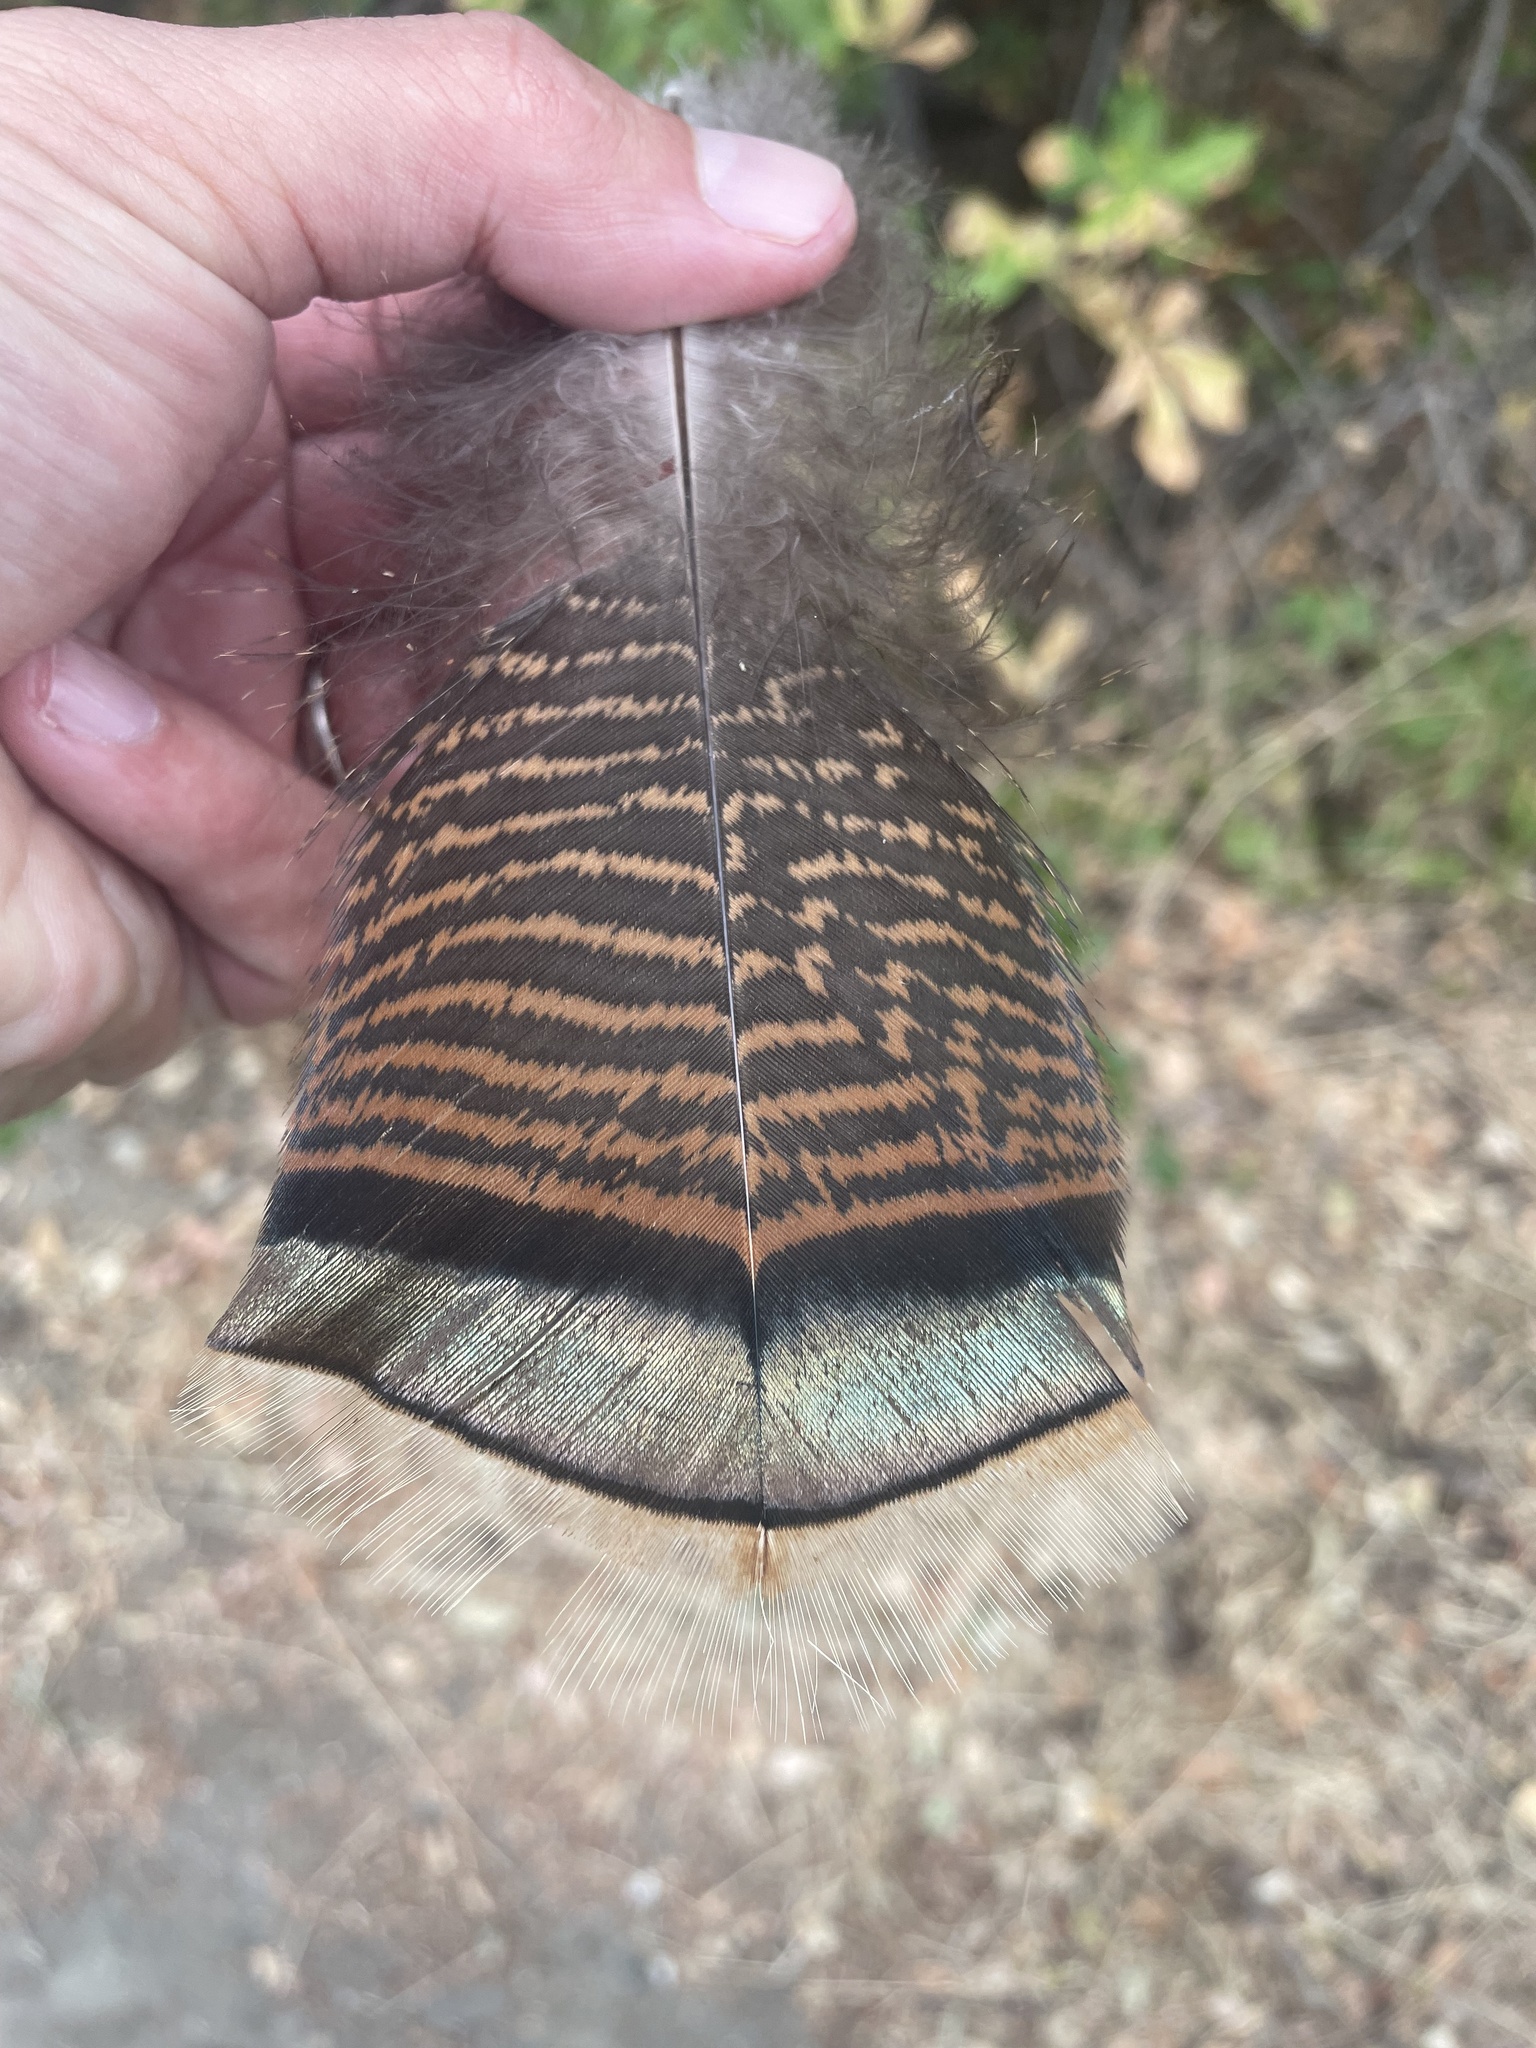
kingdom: Animalia
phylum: Chordata
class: Aves
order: Galliformes
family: Phasianidae
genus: Meleagris
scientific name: Meleagris gallopavo
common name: Wild turkey
